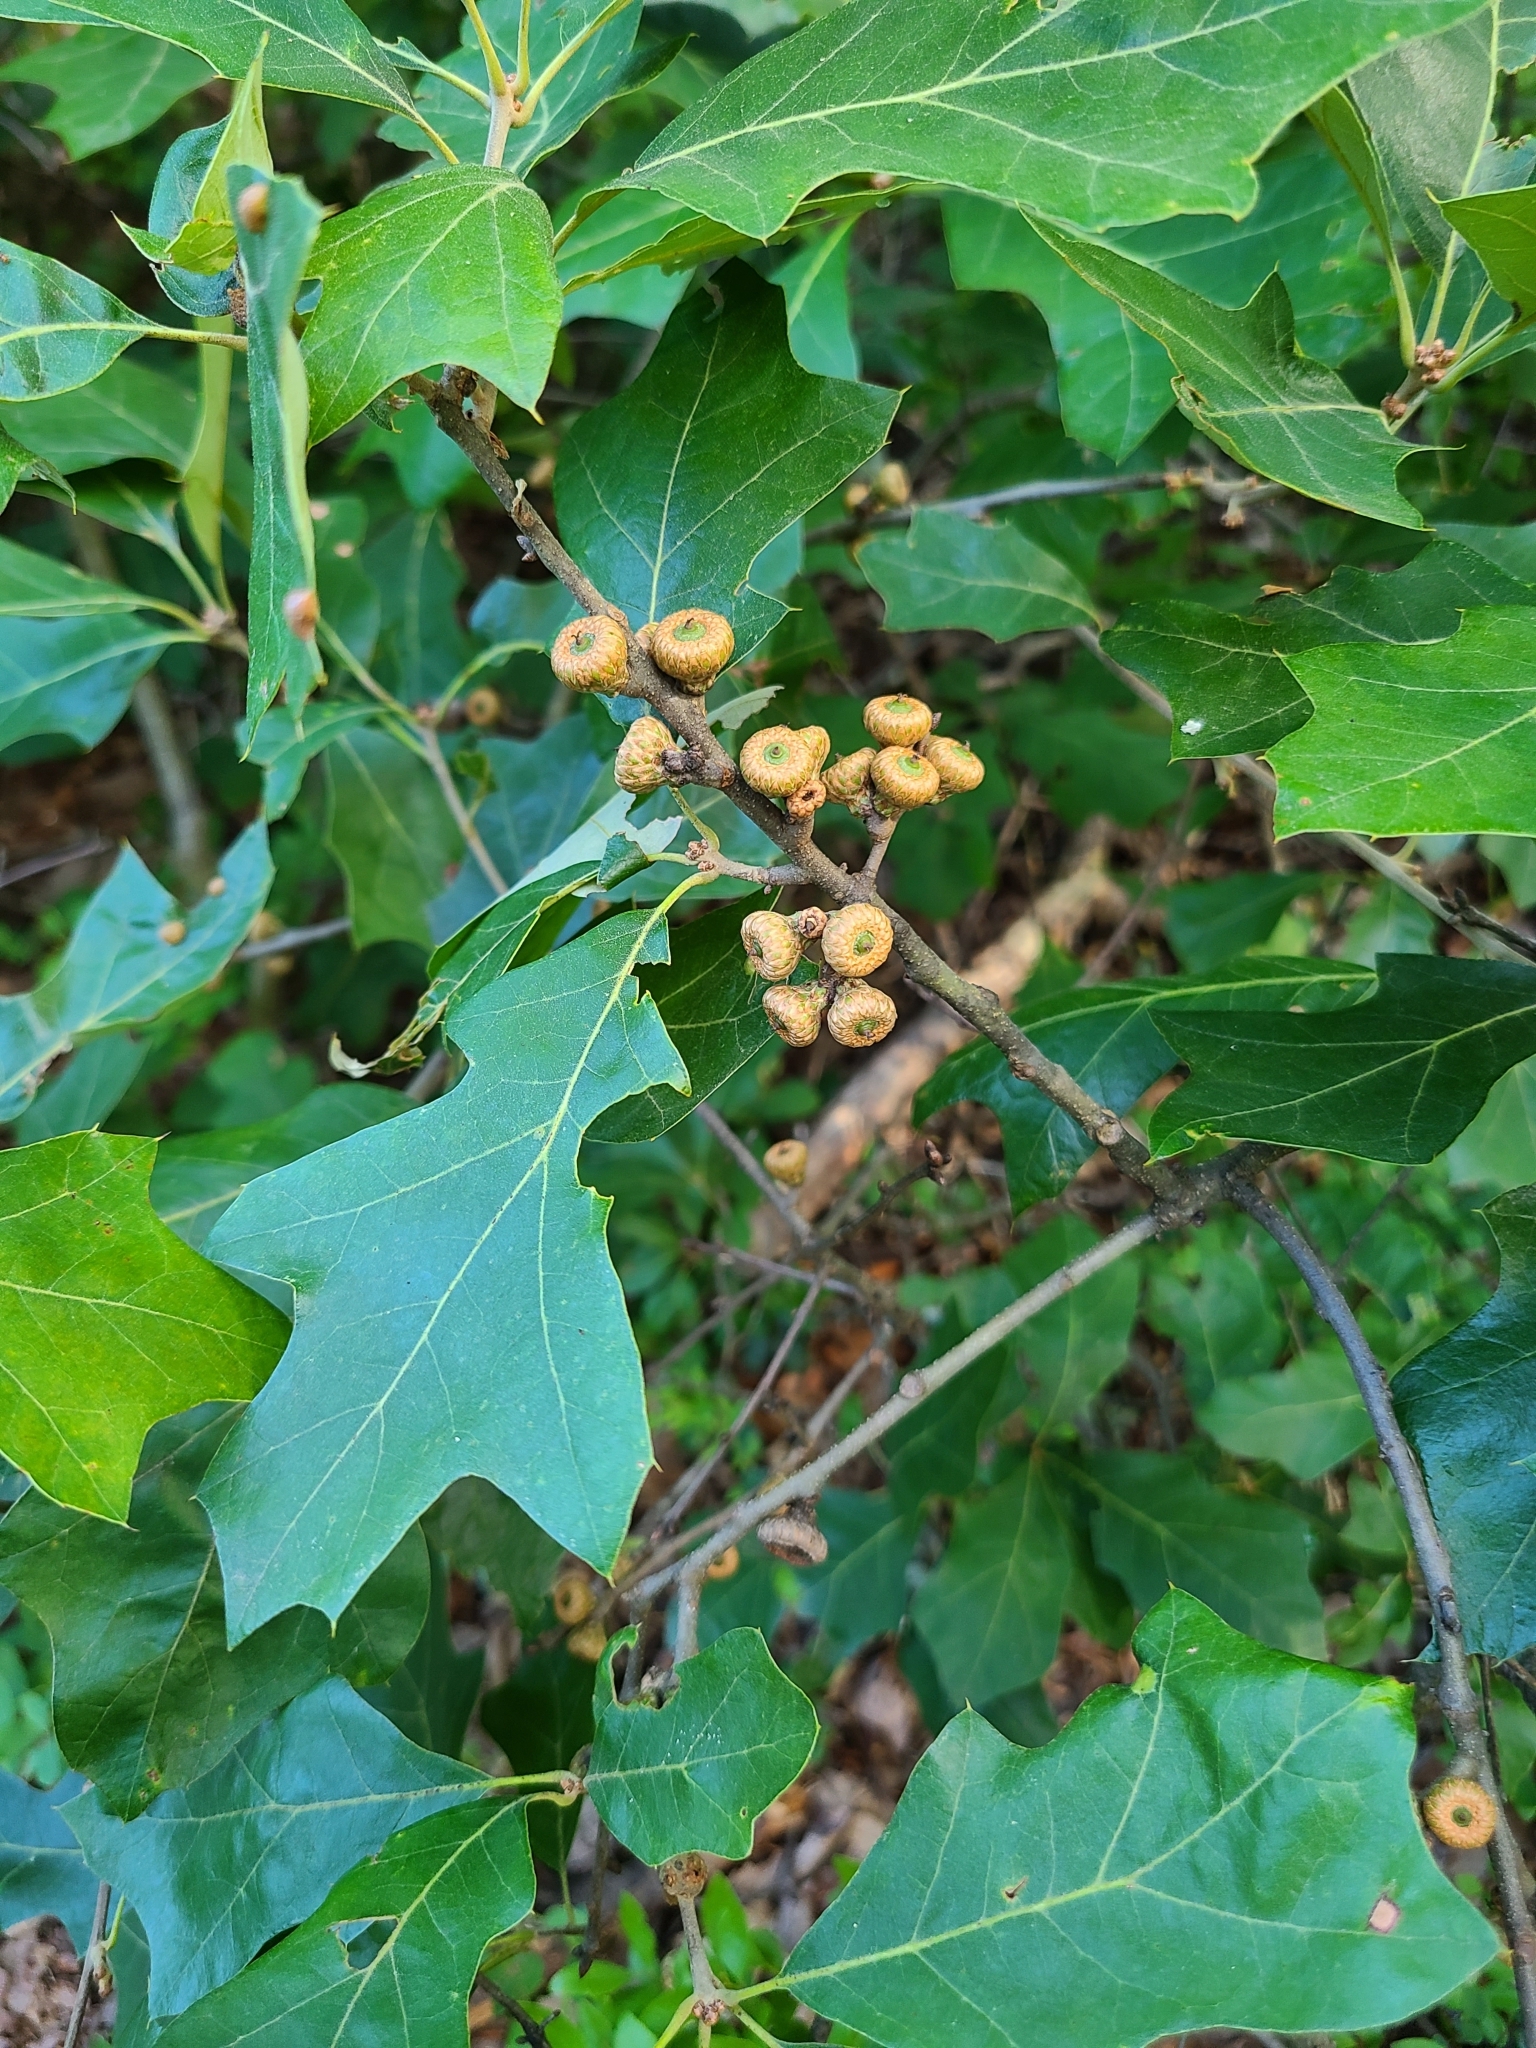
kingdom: Plantae
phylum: Tracheophyta
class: Magnoliopsida
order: Fagales
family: Fagaceae
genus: Quercus
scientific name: Quercus ilicifolia
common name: Bear oak
